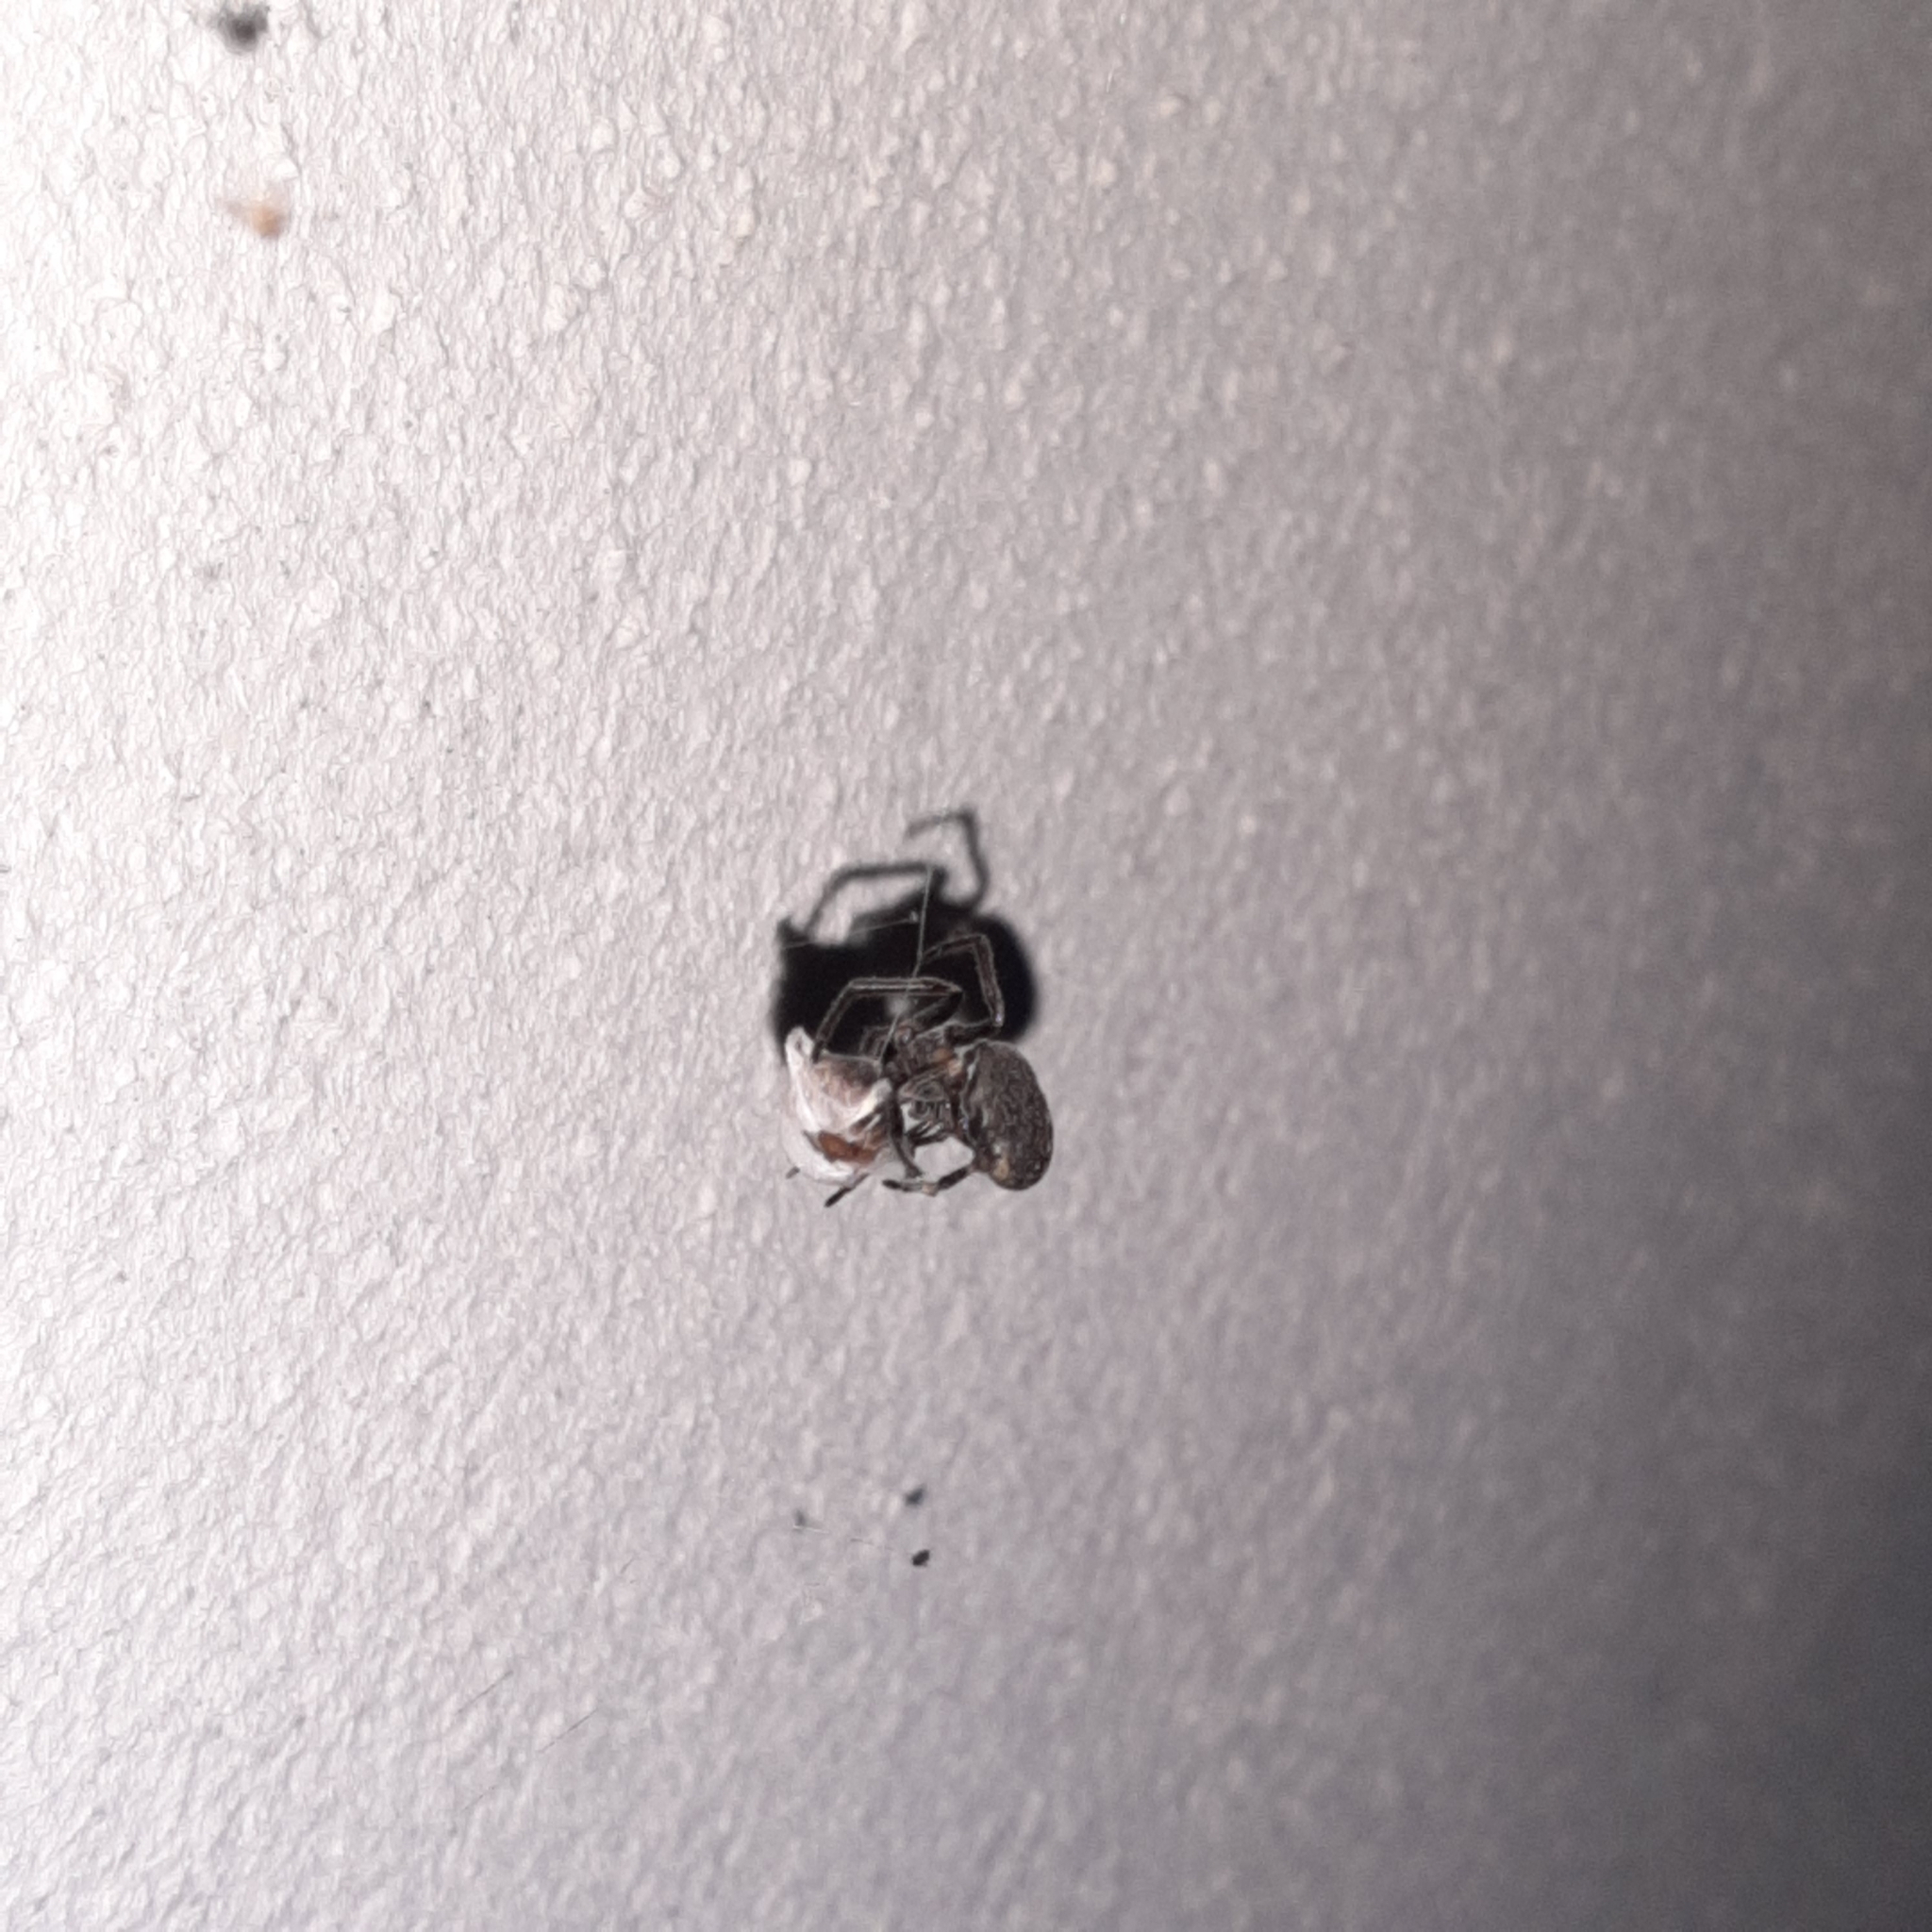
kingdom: Animalia
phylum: Arthropoda
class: Arachnida
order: Araneae
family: Araneidae
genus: Nuctenea
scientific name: Nuctenea umbratica
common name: Toad spider
